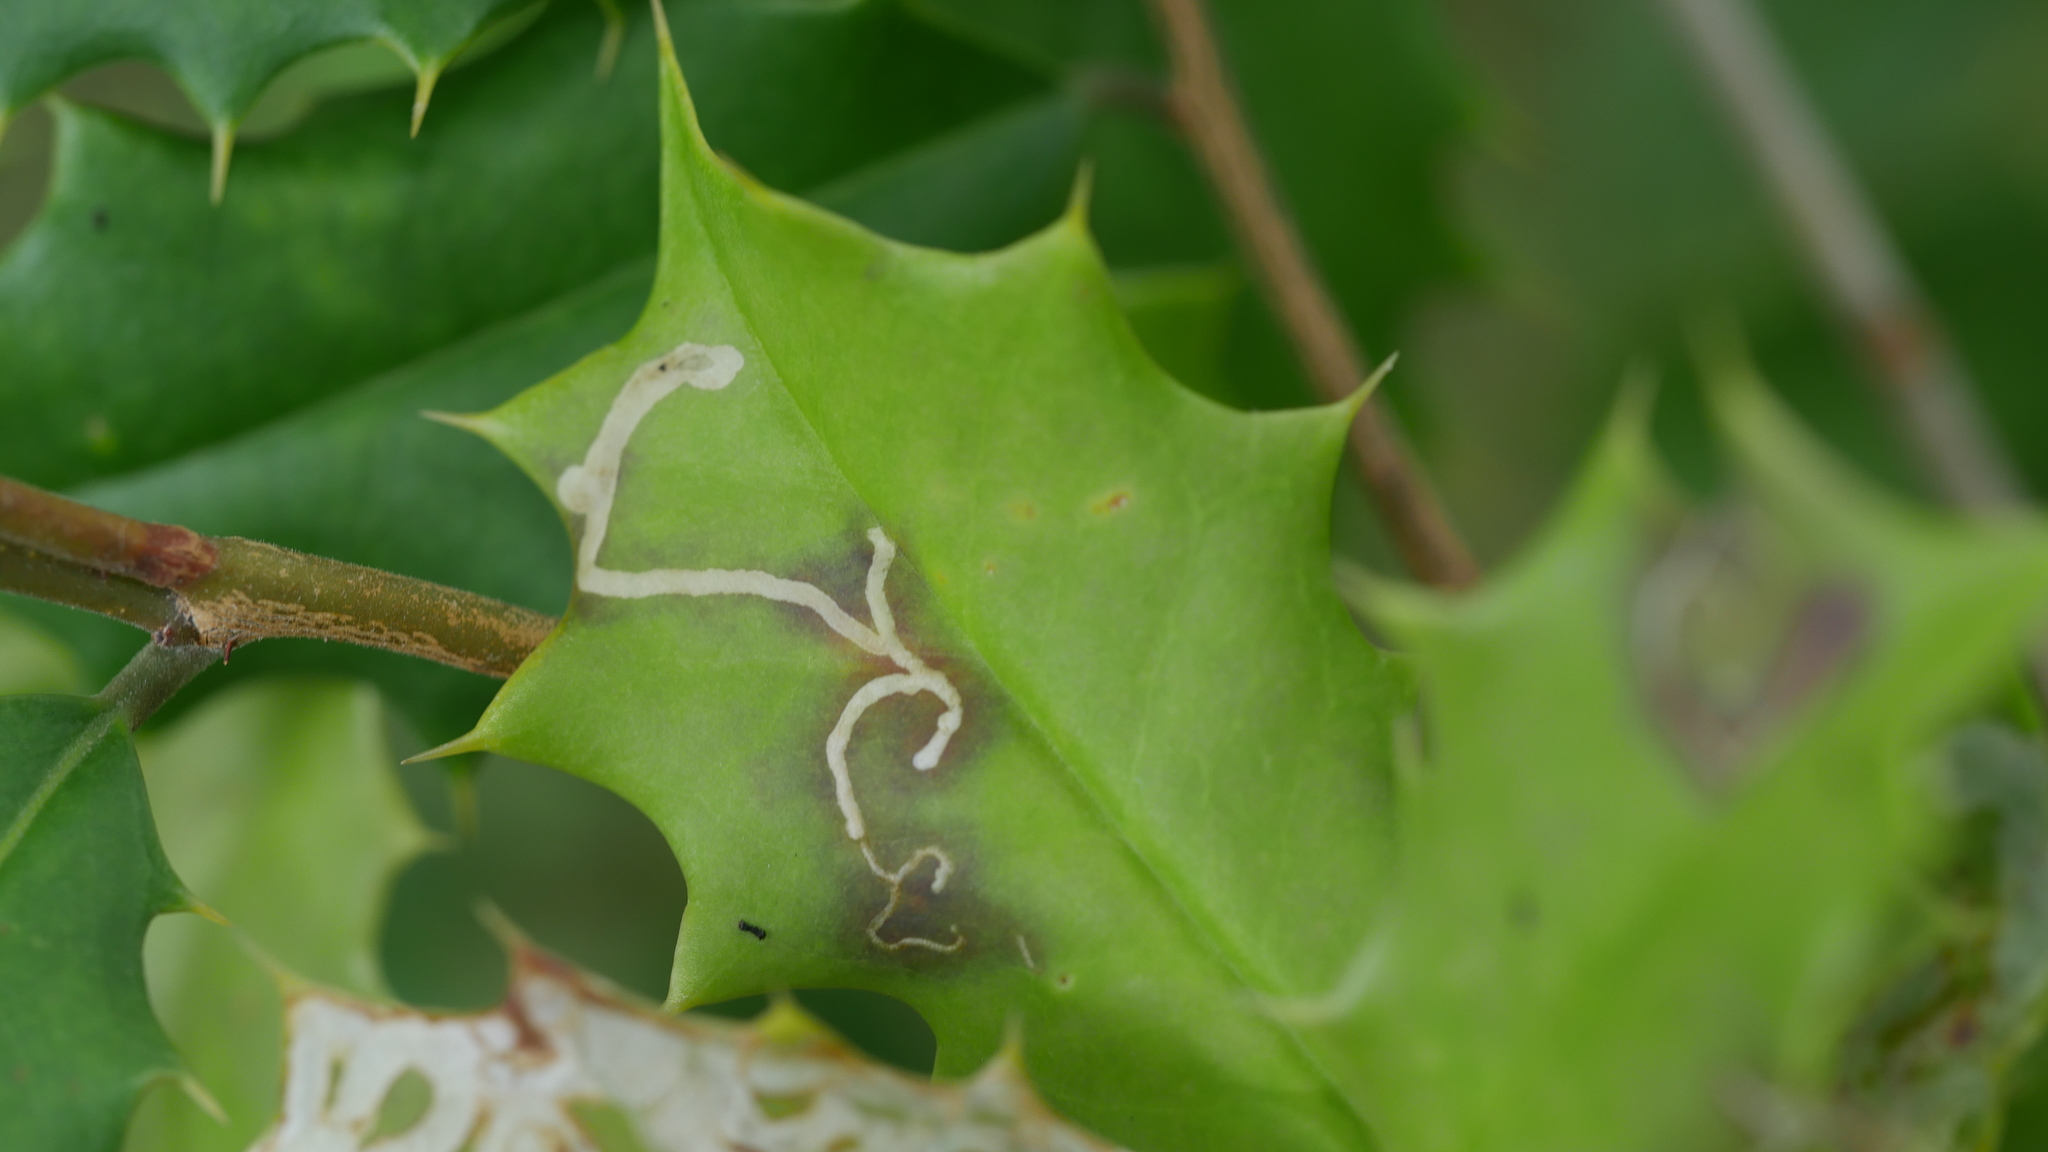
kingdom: Animalia
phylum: Arthropoda
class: Insecta
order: Diptera
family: Agromyzidae
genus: Phytomyza
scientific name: Phytomyza opacae
